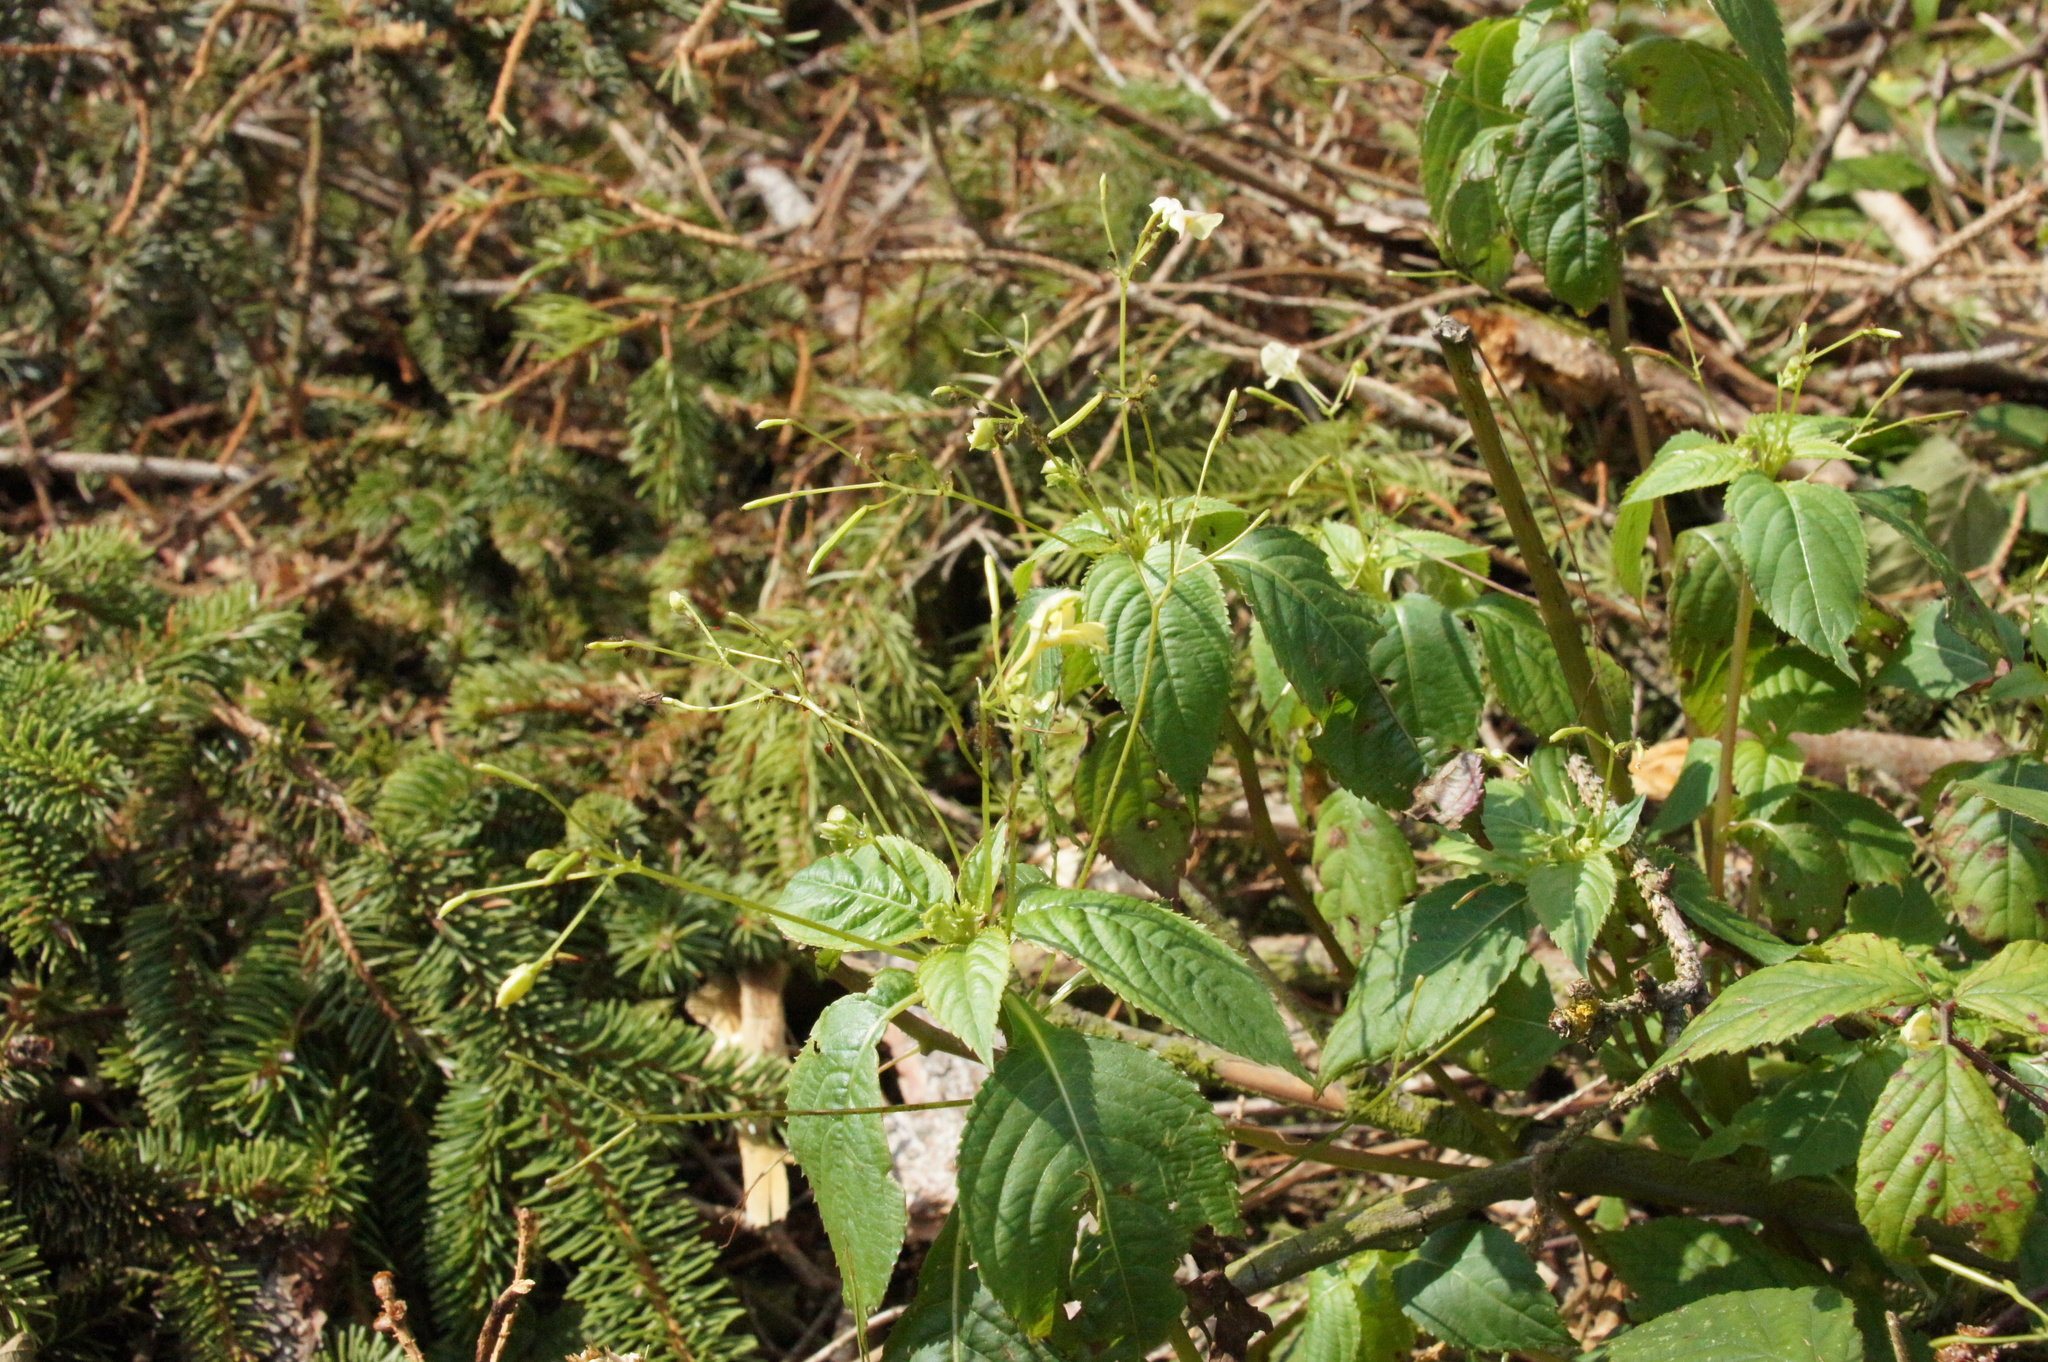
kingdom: Plantae
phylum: Tracheophyta
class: Magnoliopsida
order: Ericales
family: Balsaminaceae
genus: Impatiens
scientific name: Impatiens parviflora
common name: Small balsam
